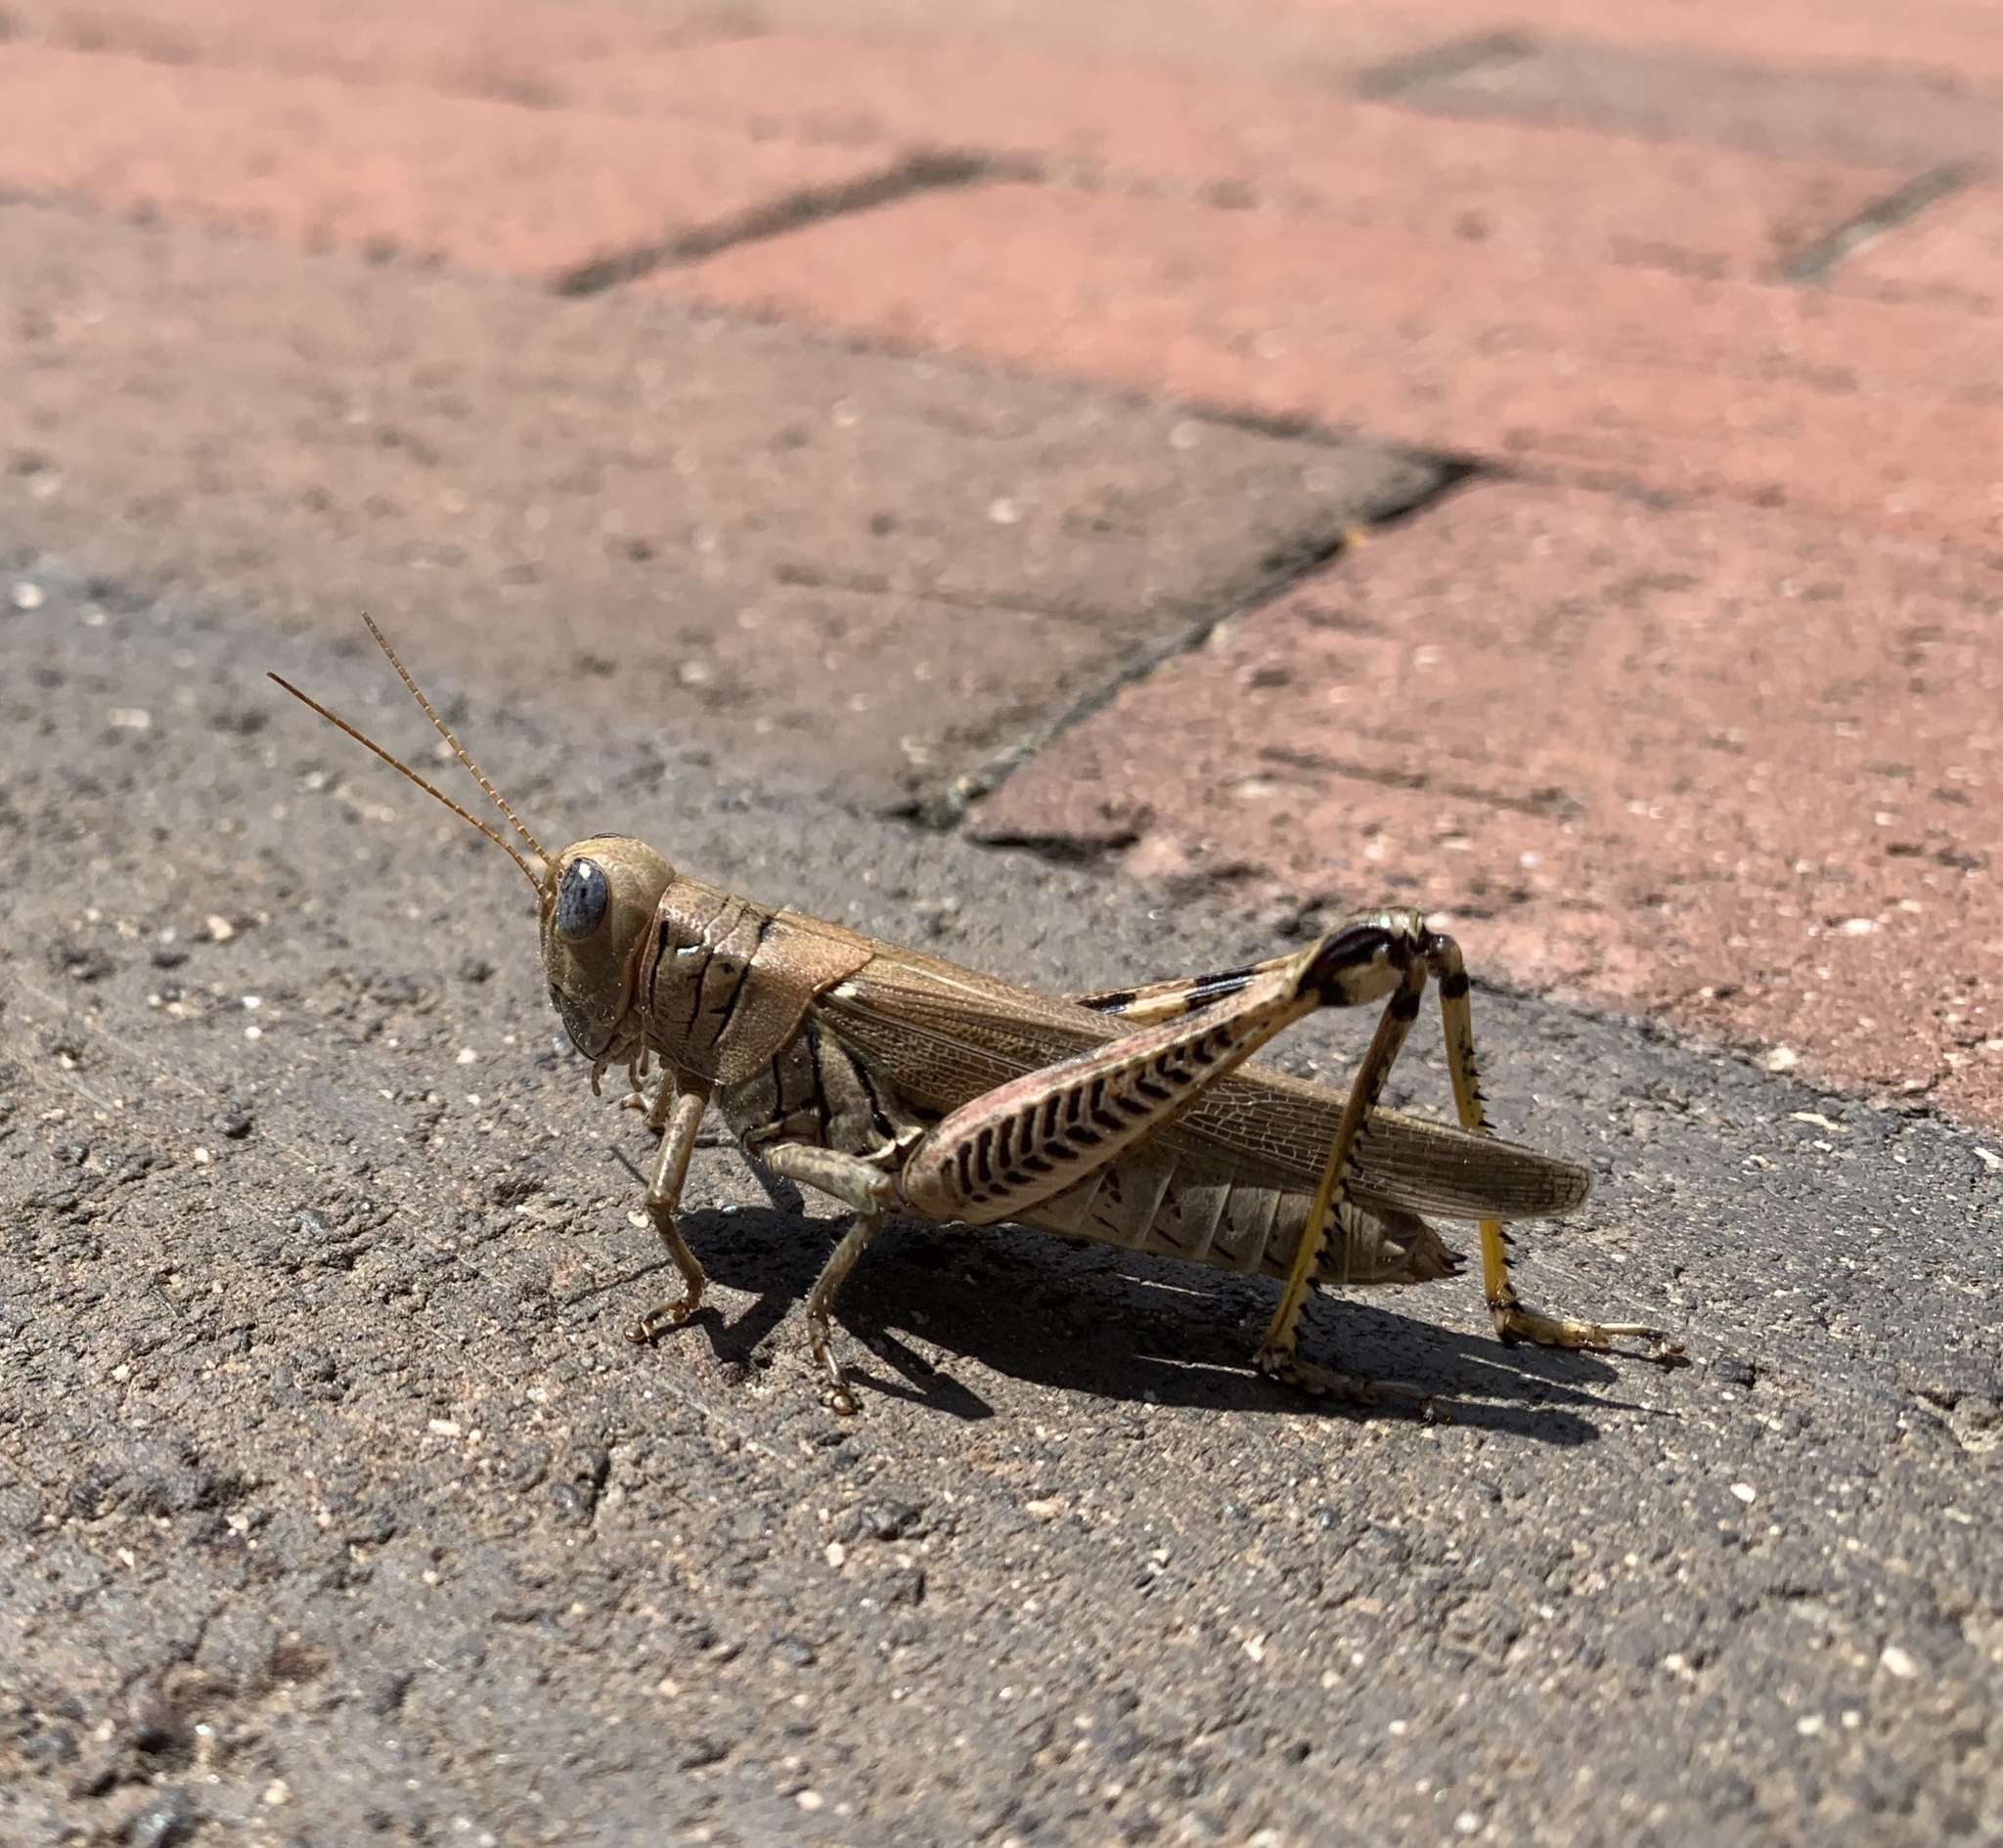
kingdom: Animalia
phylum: Arthropoda
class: Insecta
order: Orthoptera
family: Acrididae
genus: Melanoplus
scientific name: Melanoplus differentialis
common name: Differential grasshopper
